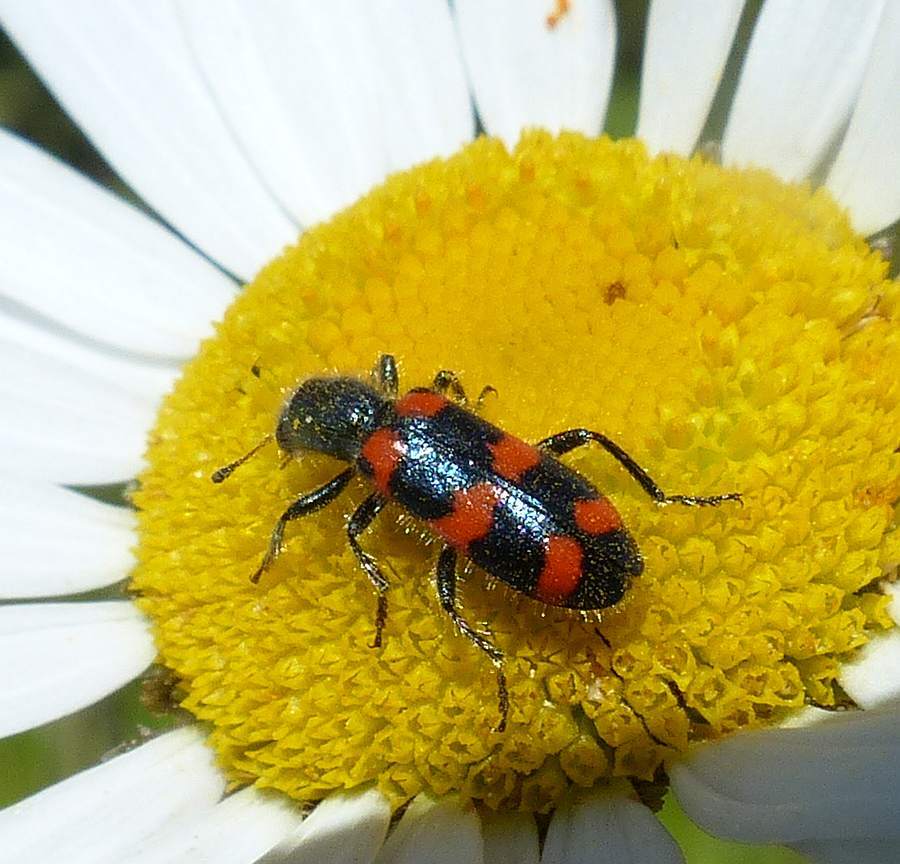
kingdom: Animalia
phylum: Arthropoda
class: Insecta
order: Coleoptera
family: Cleridae
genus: Trichodes
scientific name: Trichodes nutalli
